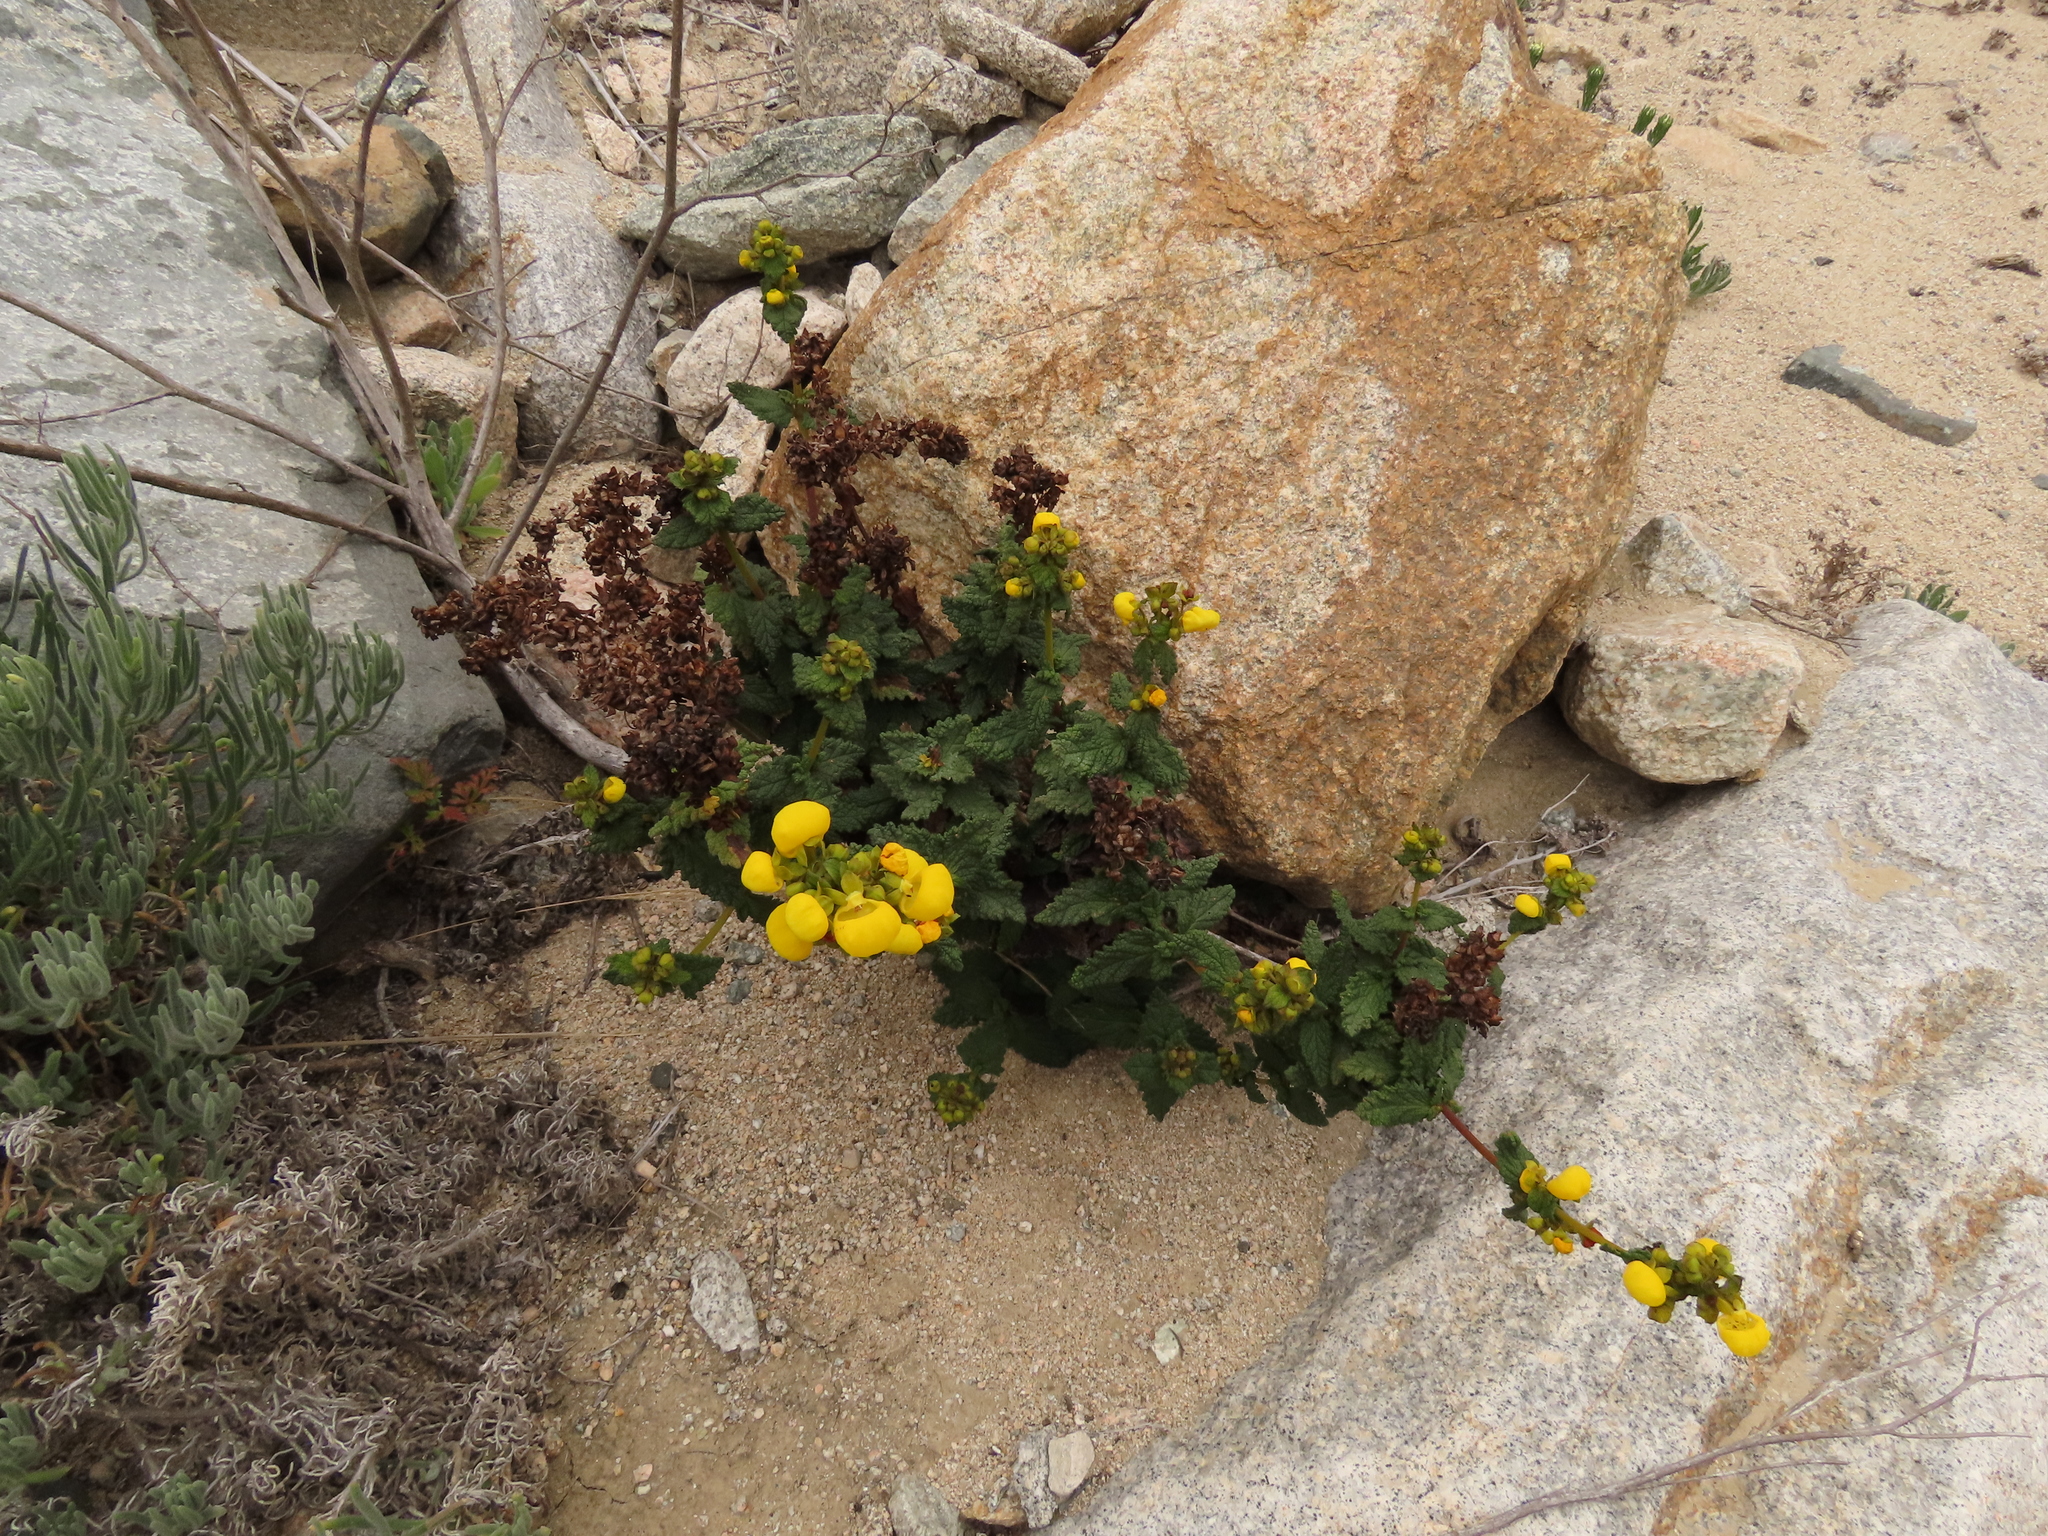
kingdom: Plantae
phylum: Tracheophyta
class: Magnoliopsida
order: Lamiales
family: Calceolariaceae
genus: Calceolaria
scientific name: Calceolaria collina
